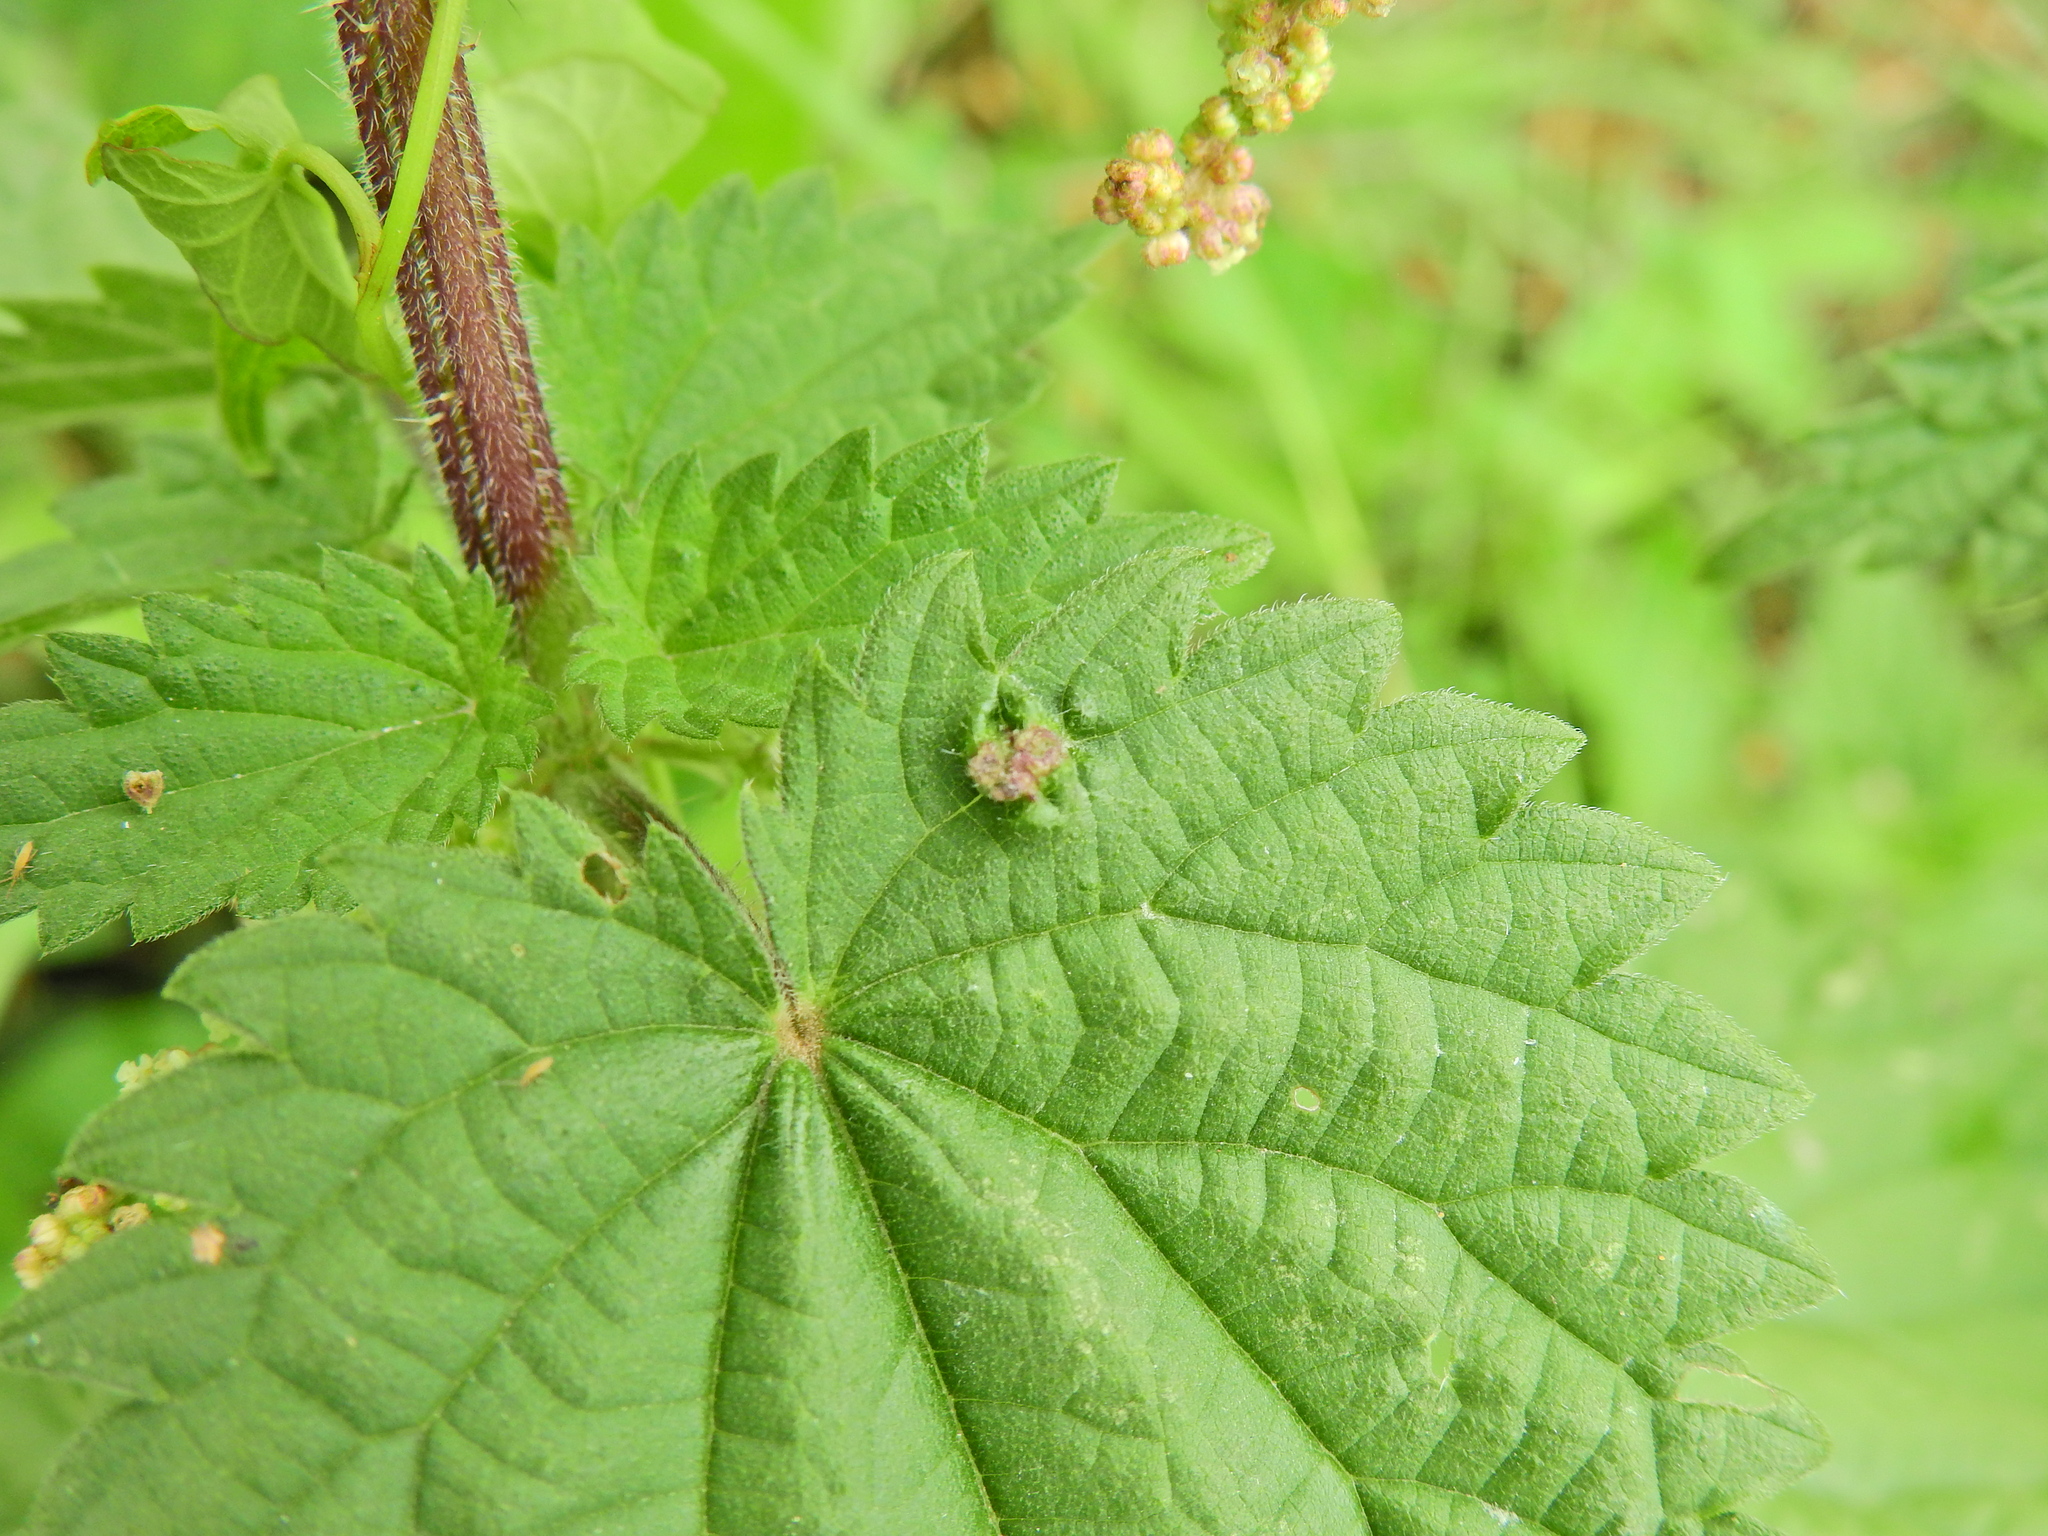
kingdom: Animalia
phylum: Arthropoda
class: Insecta
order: Diptera
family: Cecidomyiidae
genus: Dasineura
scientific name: Dasineura urticae
